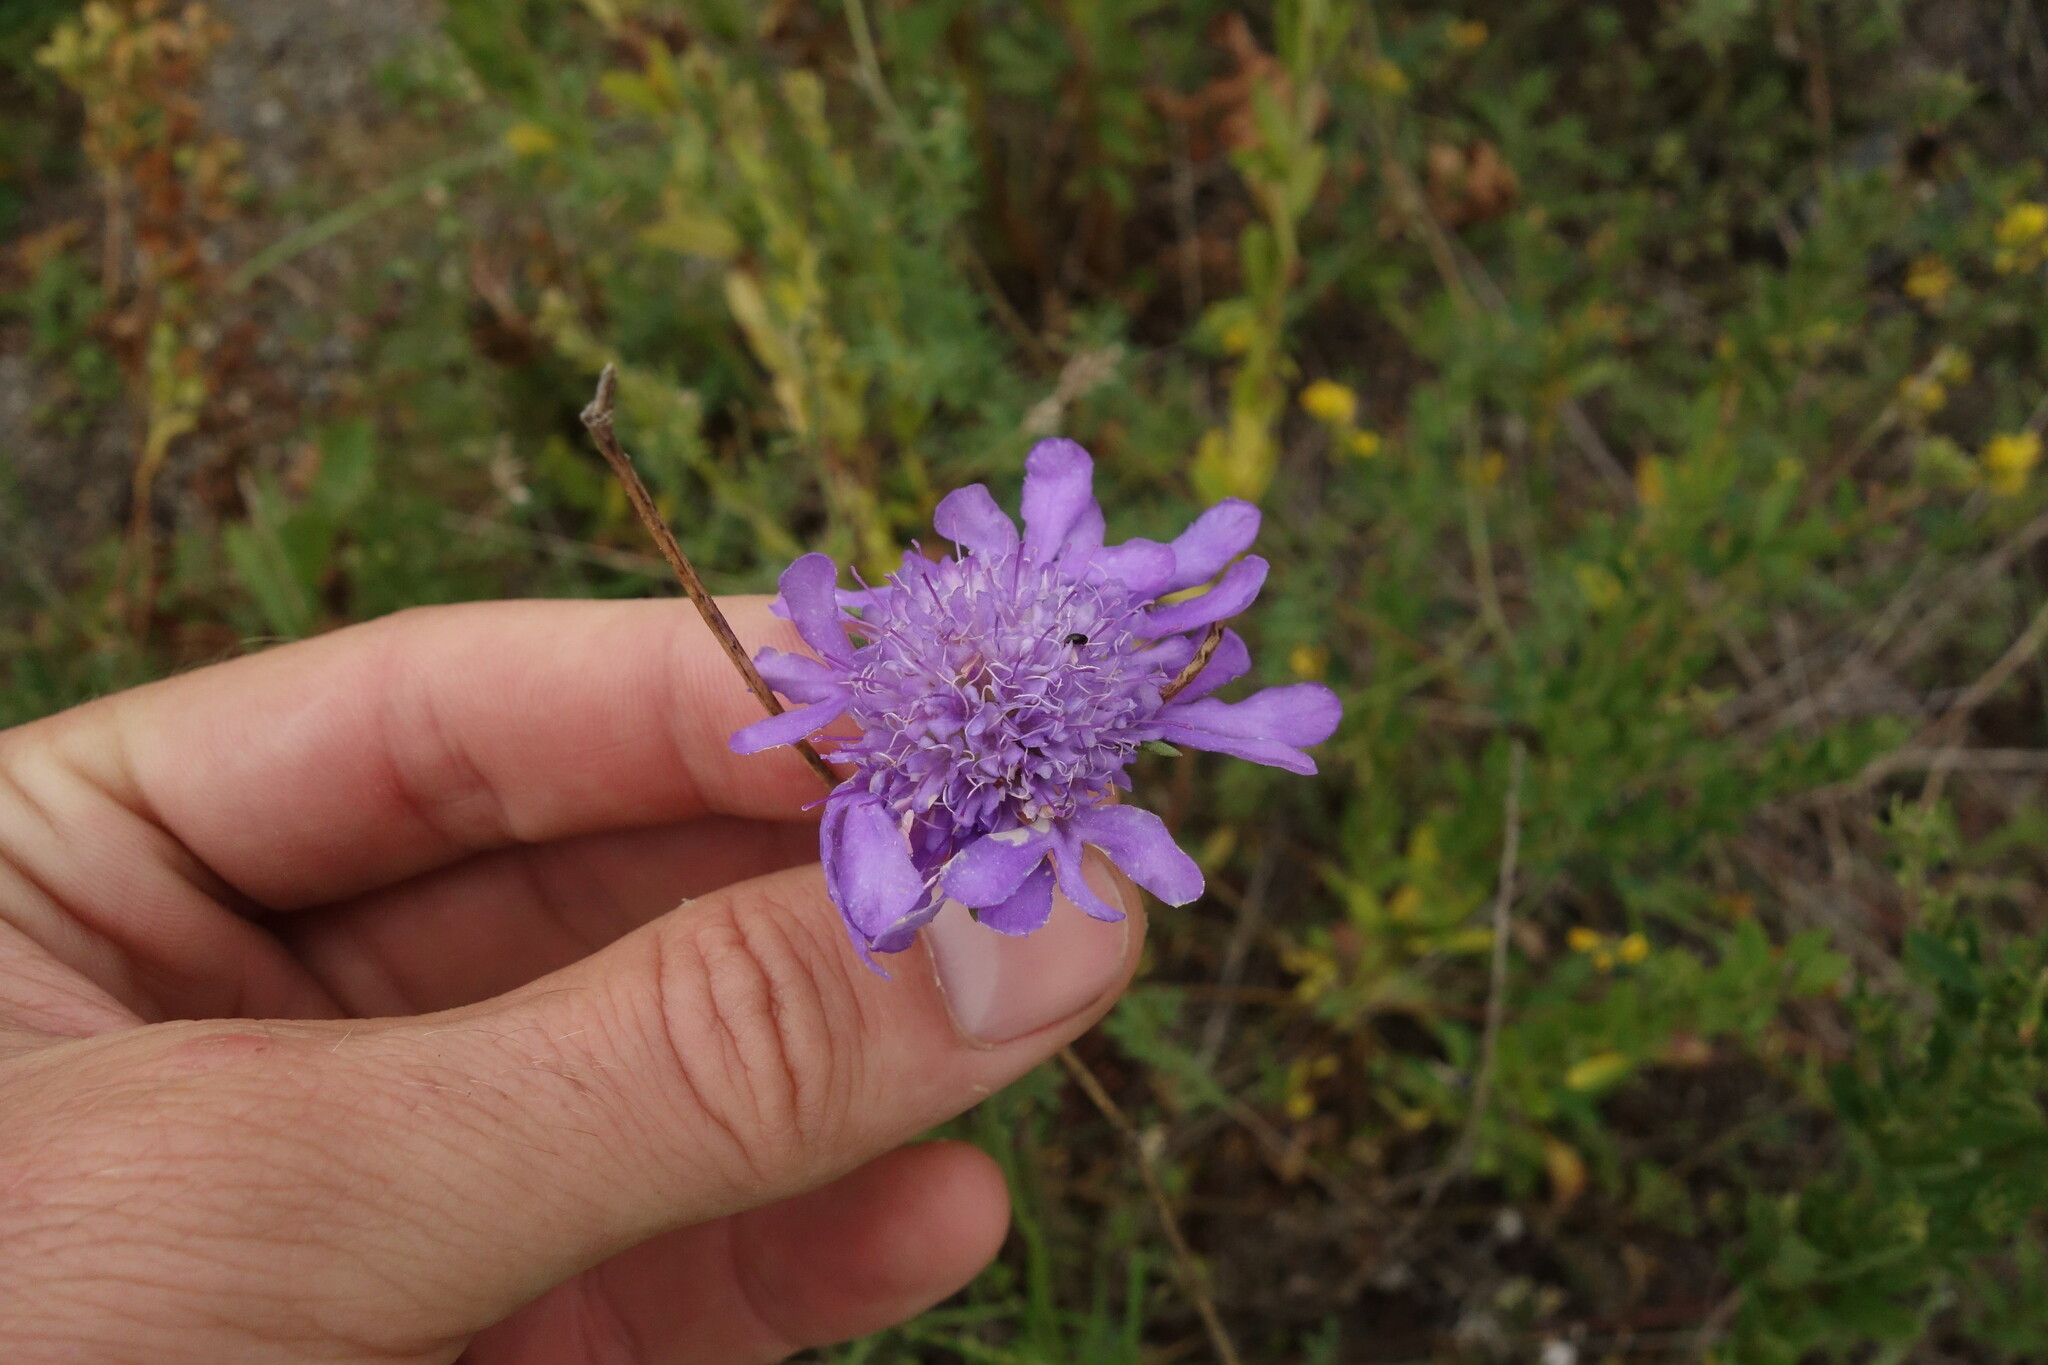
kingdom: Plantae
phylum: Tracheophyta
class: Magnoliopsida
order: Dipsacales
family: Caprifoliaceae
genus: Scabiosa
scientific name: Scabiosa comosa
